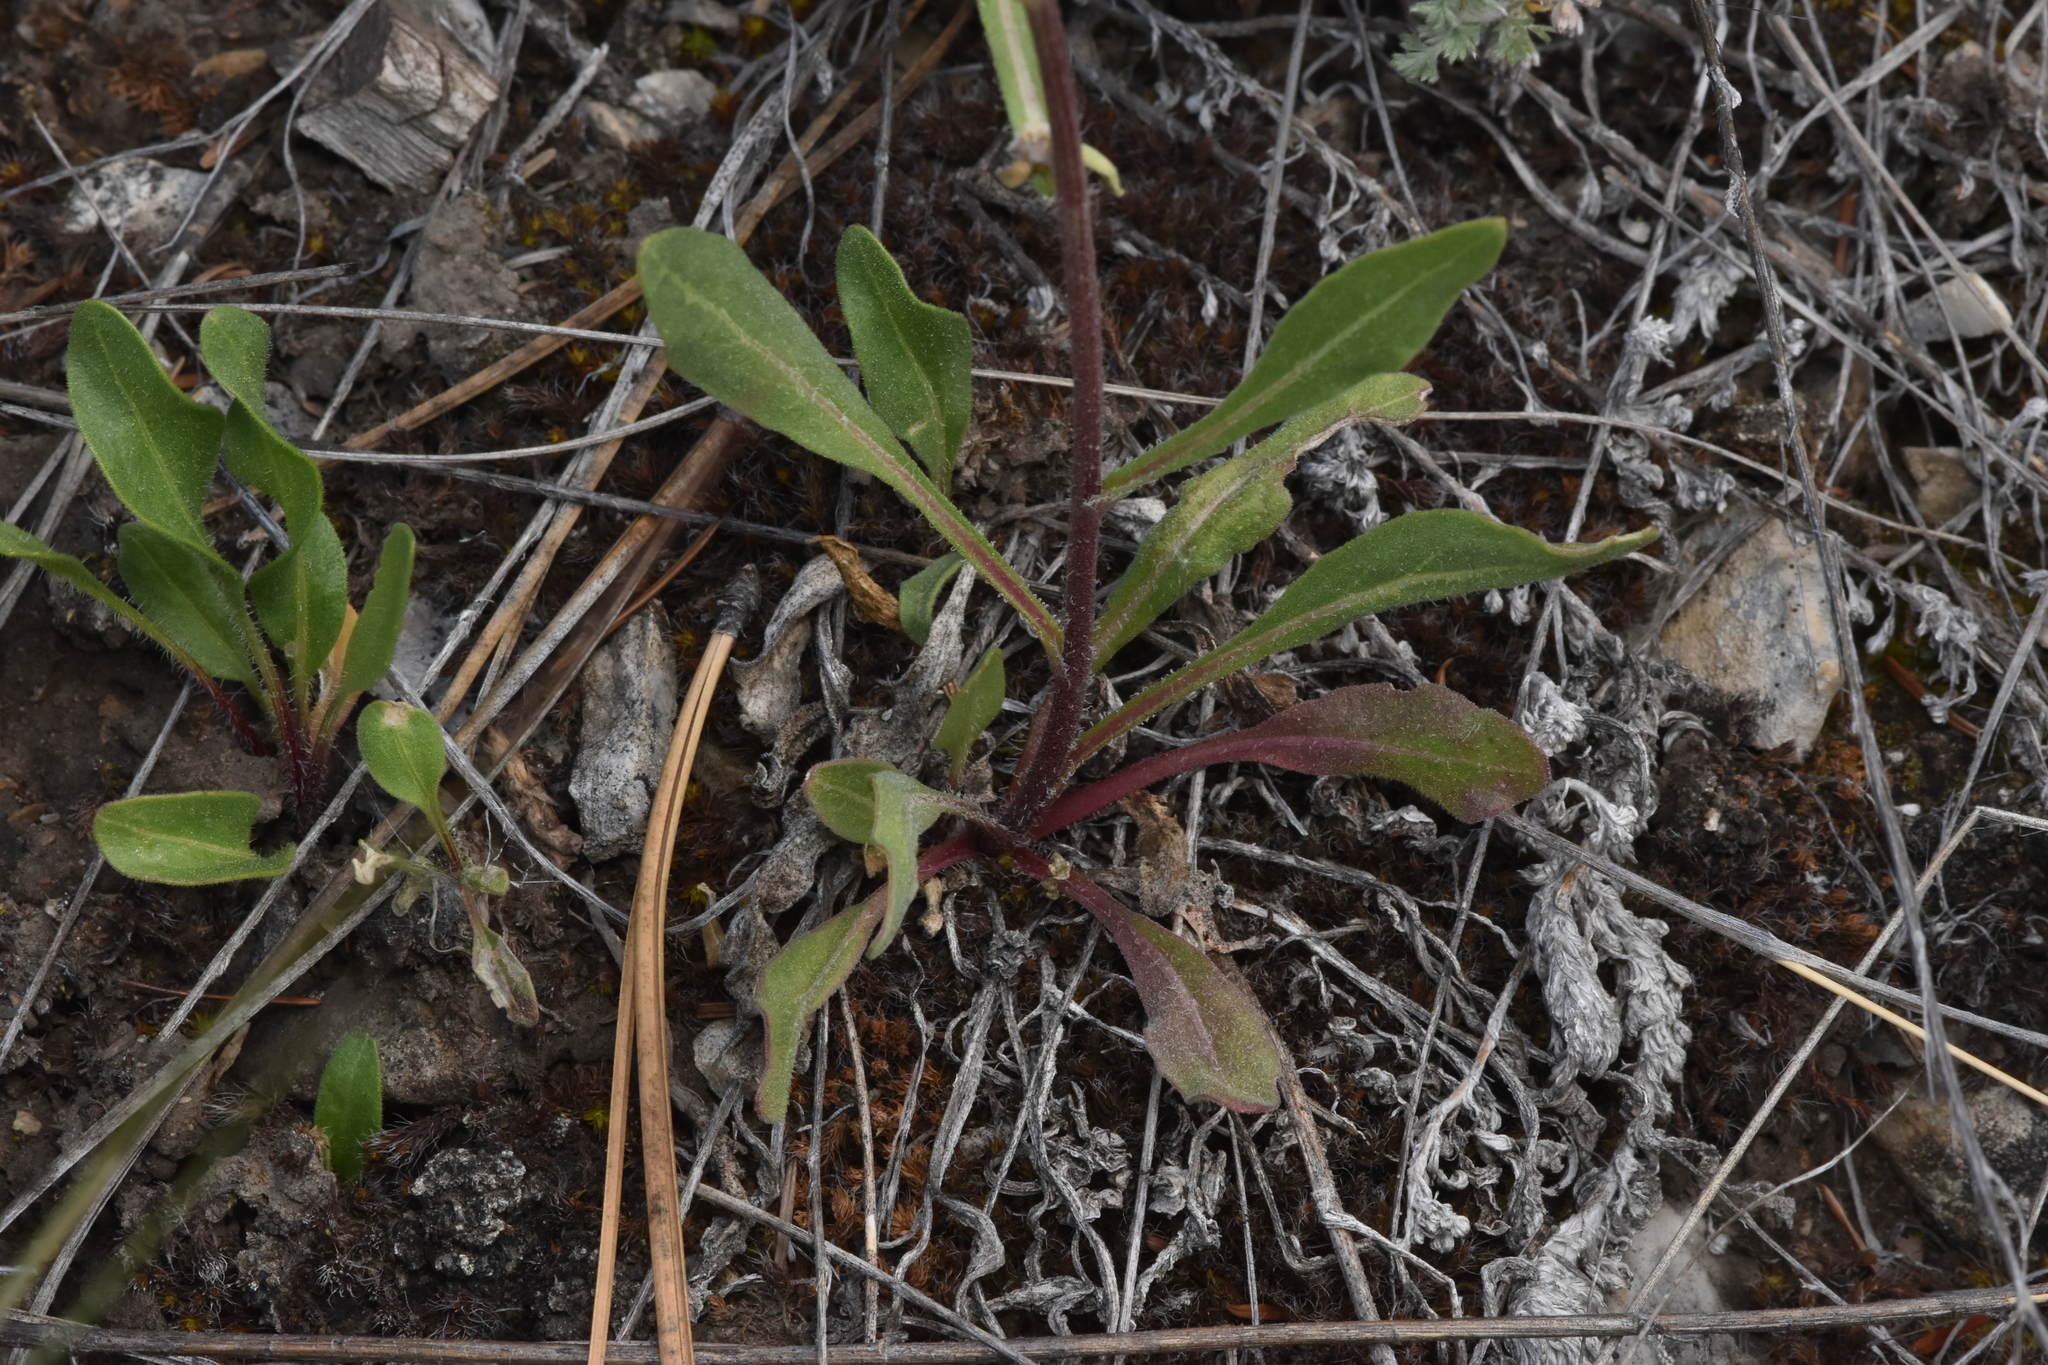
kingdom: Plantae
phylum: Tracheophyta
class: Magnoliopsida
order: Asterales
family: Asteraceae
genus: Gaillardia
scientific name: Gaillardia aristata
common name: Blanket-flower
